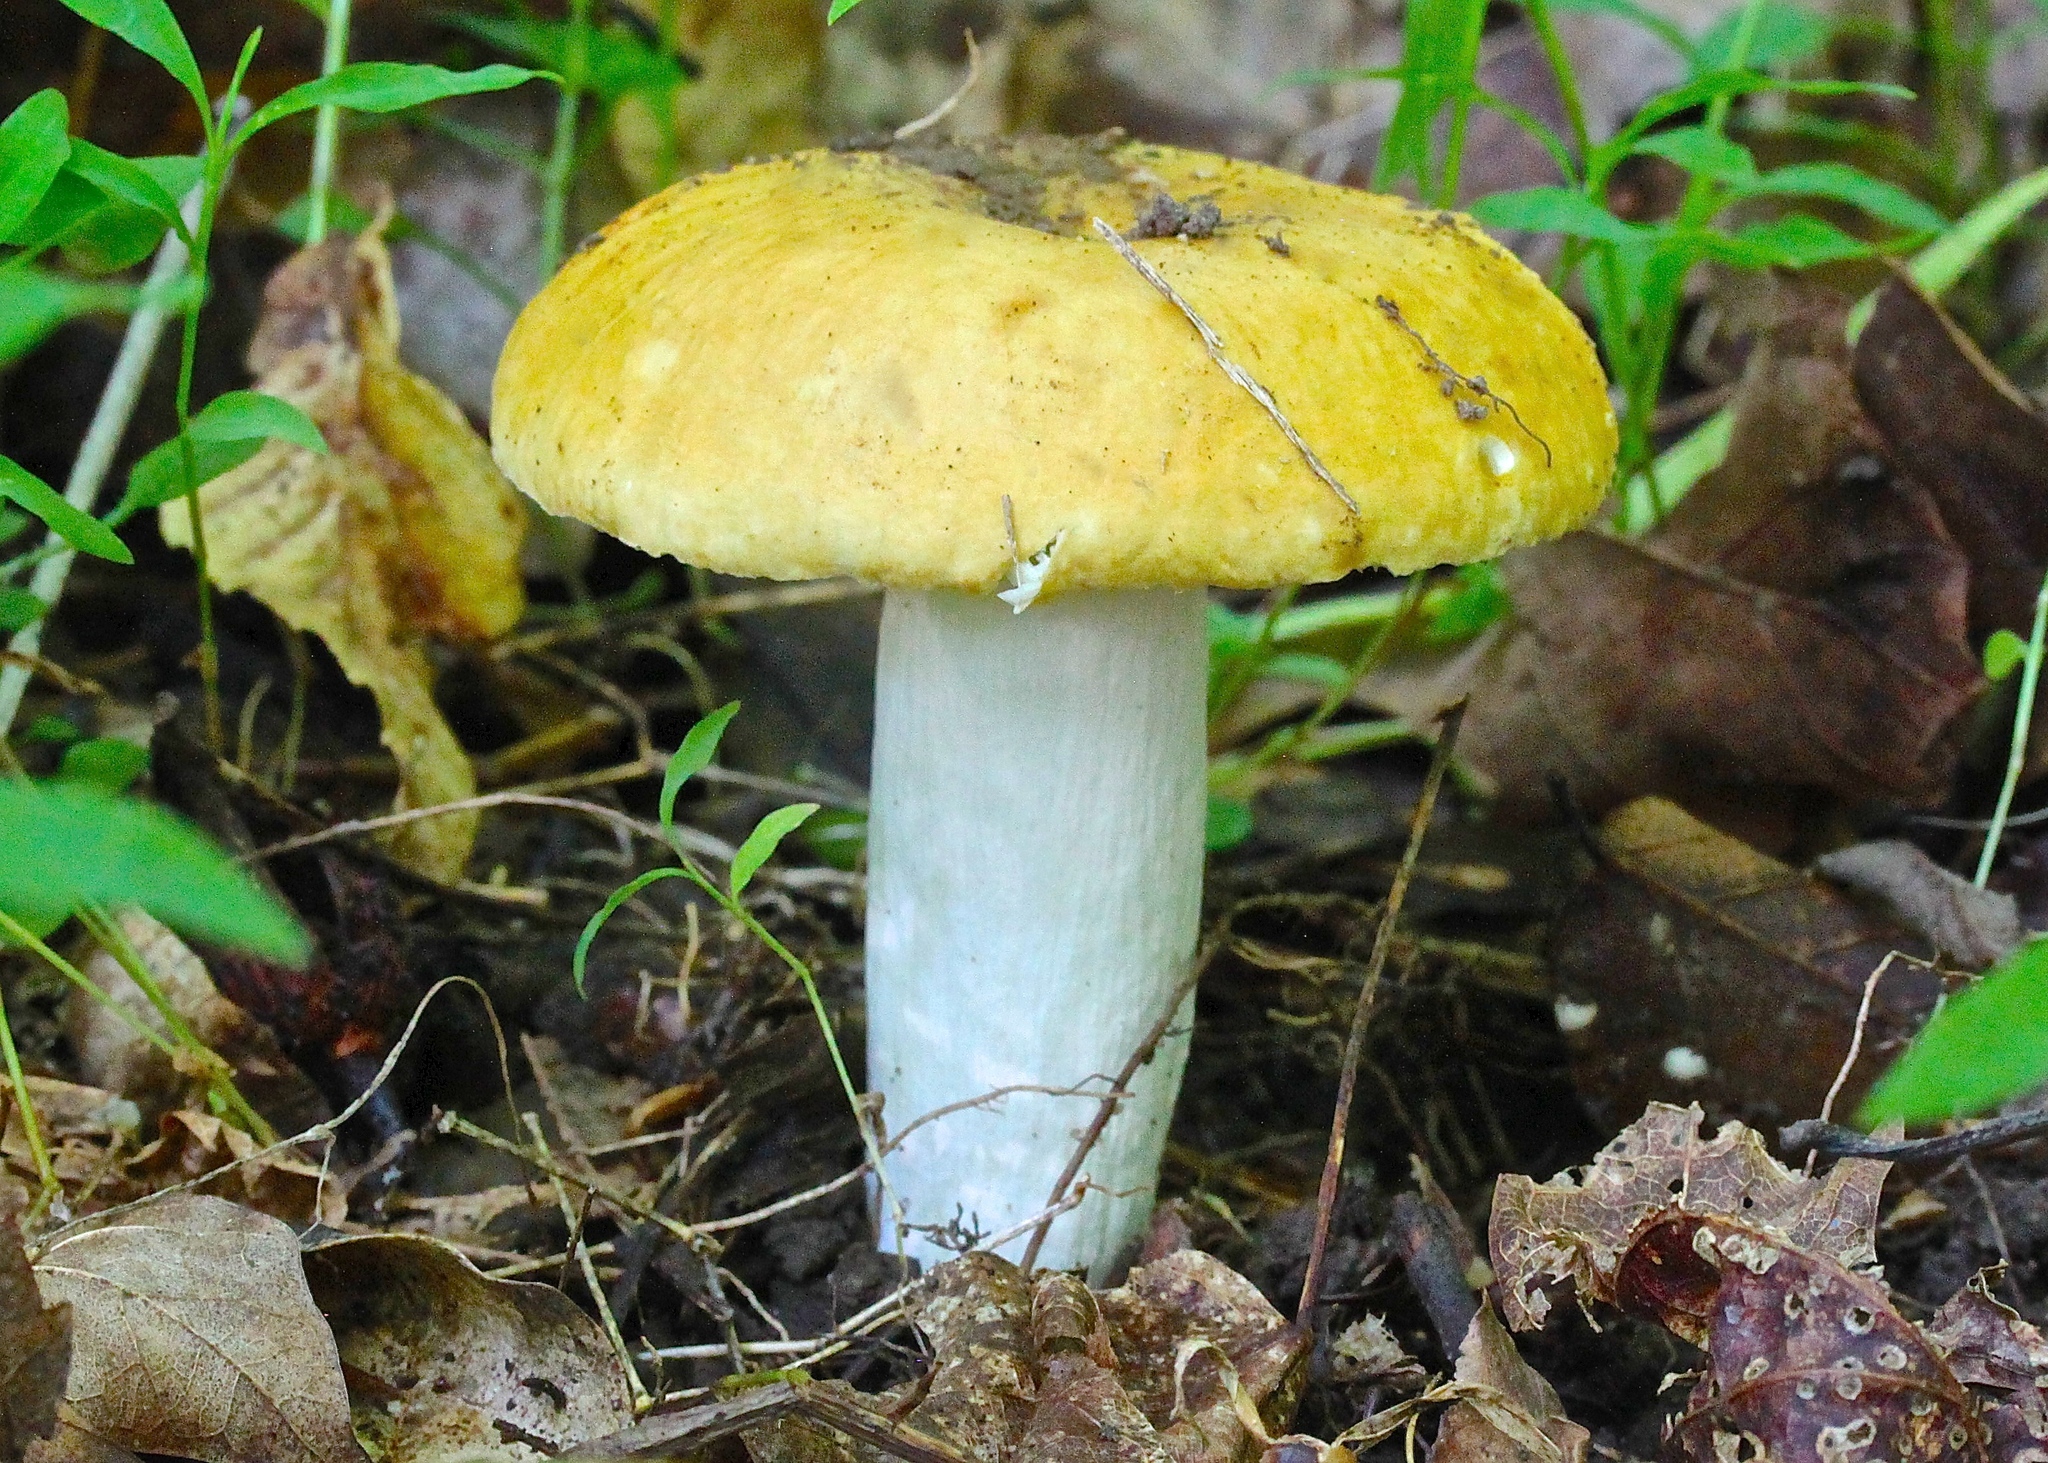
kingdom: Fungi
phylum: Basidiomycota
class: Agaricomycetes
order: Russulales
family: Russulaceae
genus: Russula
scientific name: Russula claroflava
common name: The yellow swamp brittlegill
